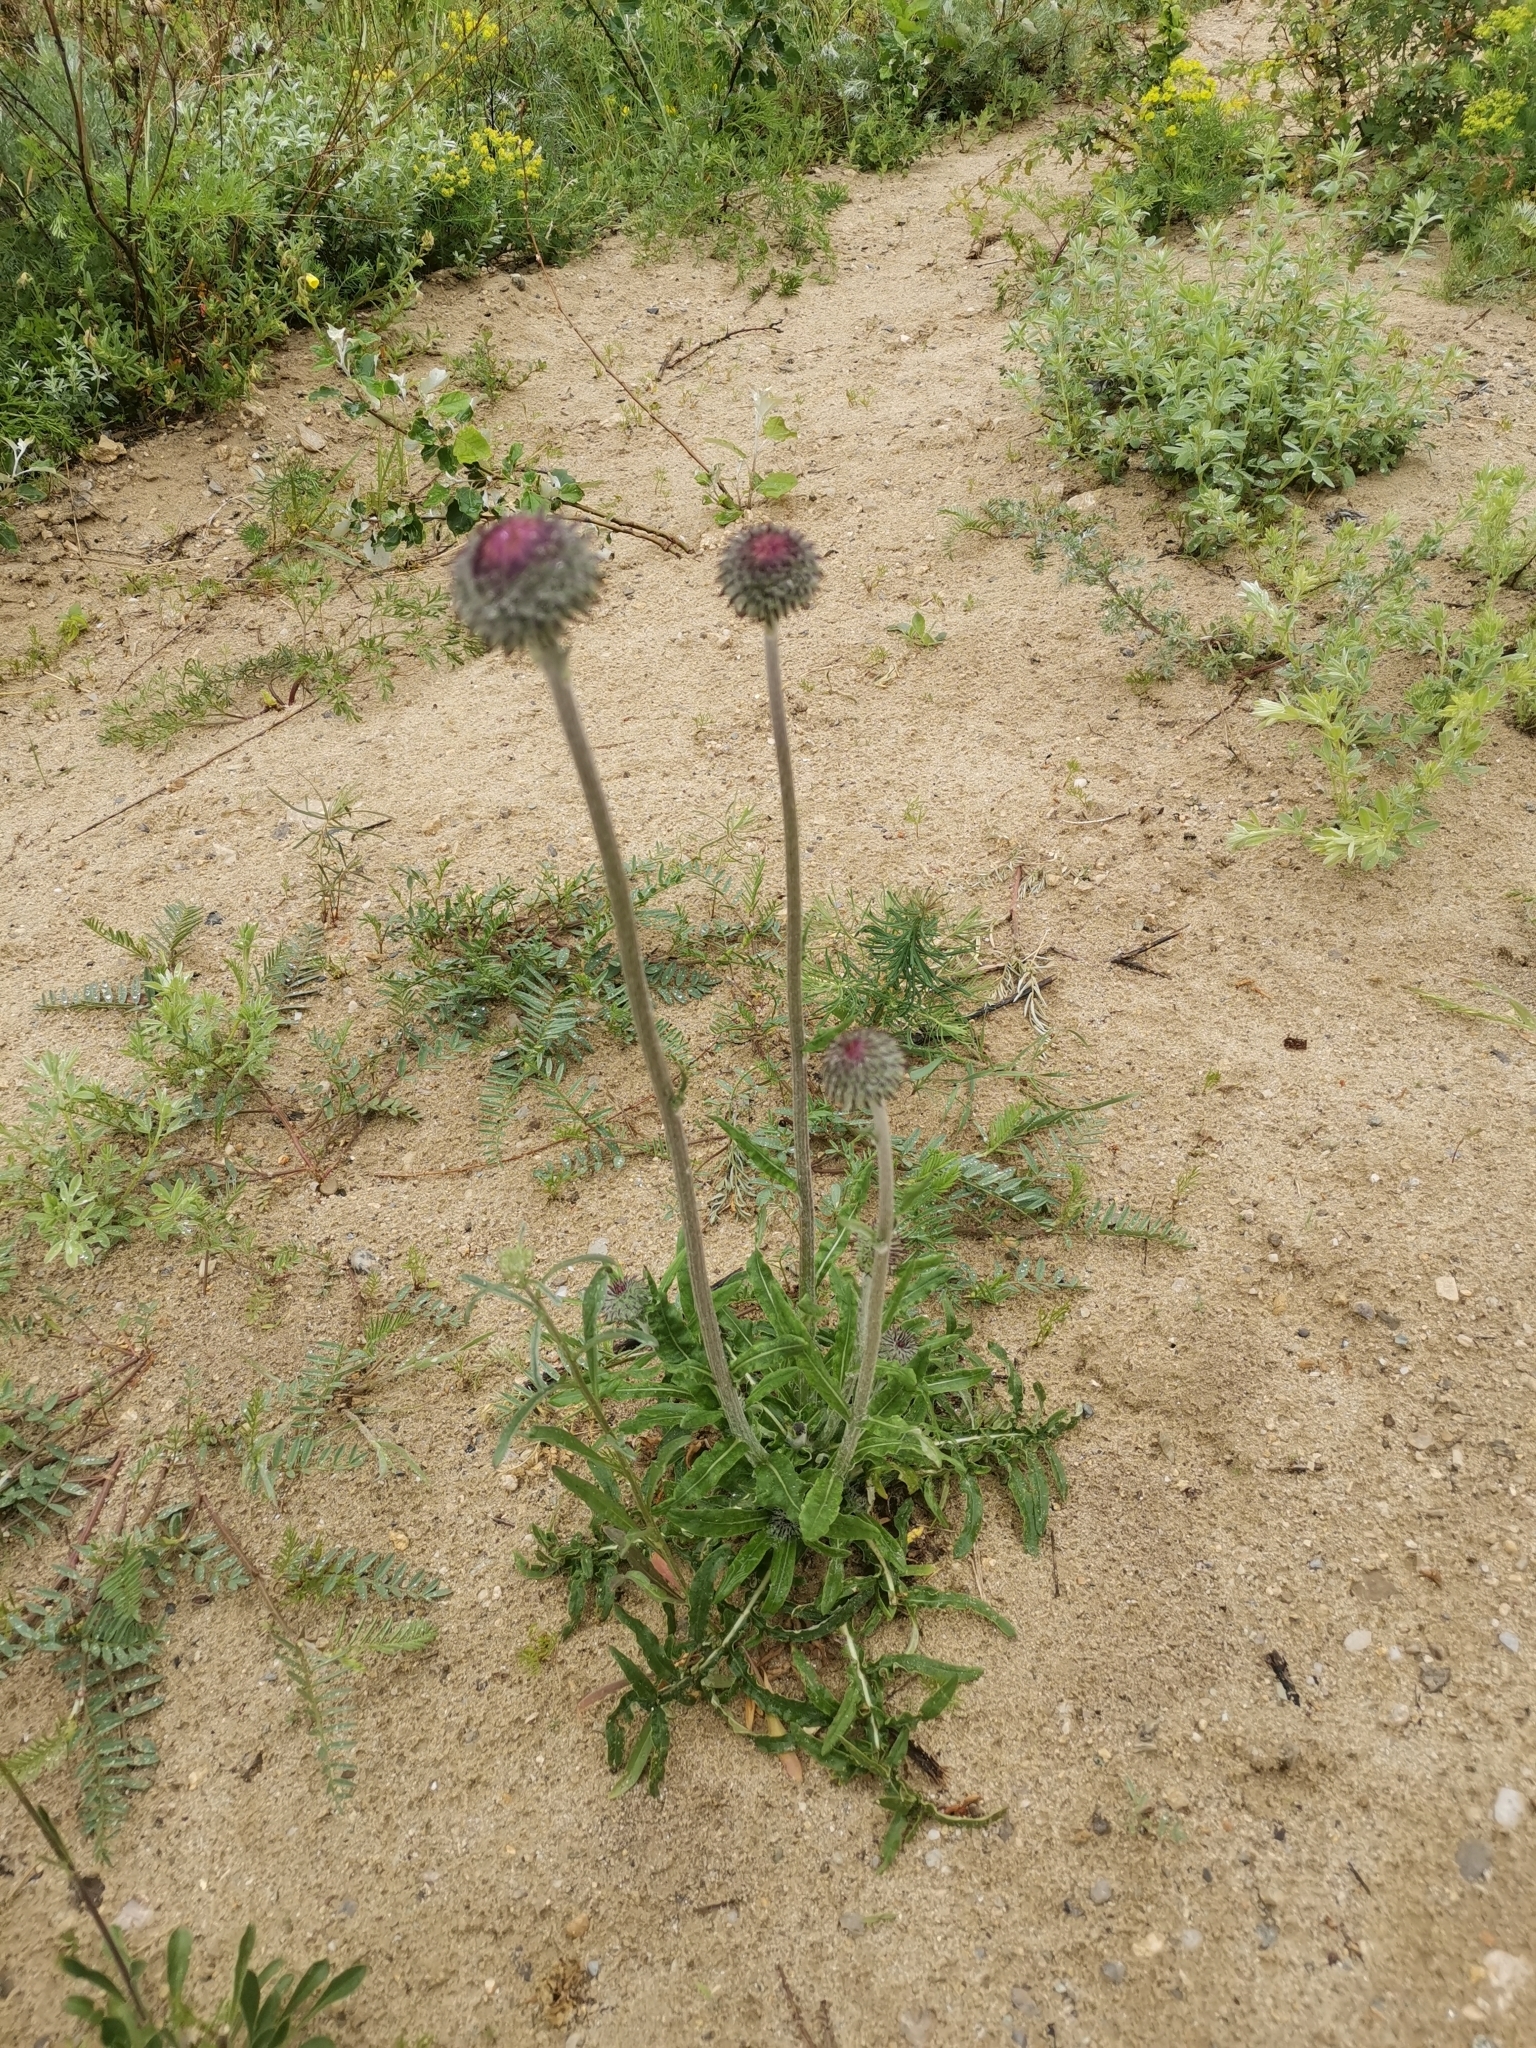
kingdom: Plantae
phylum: Tracheophyta
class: Magnoliopsida
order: Asterales
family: Asteraceae
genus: Jurinea
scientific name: Jurinea mollis
